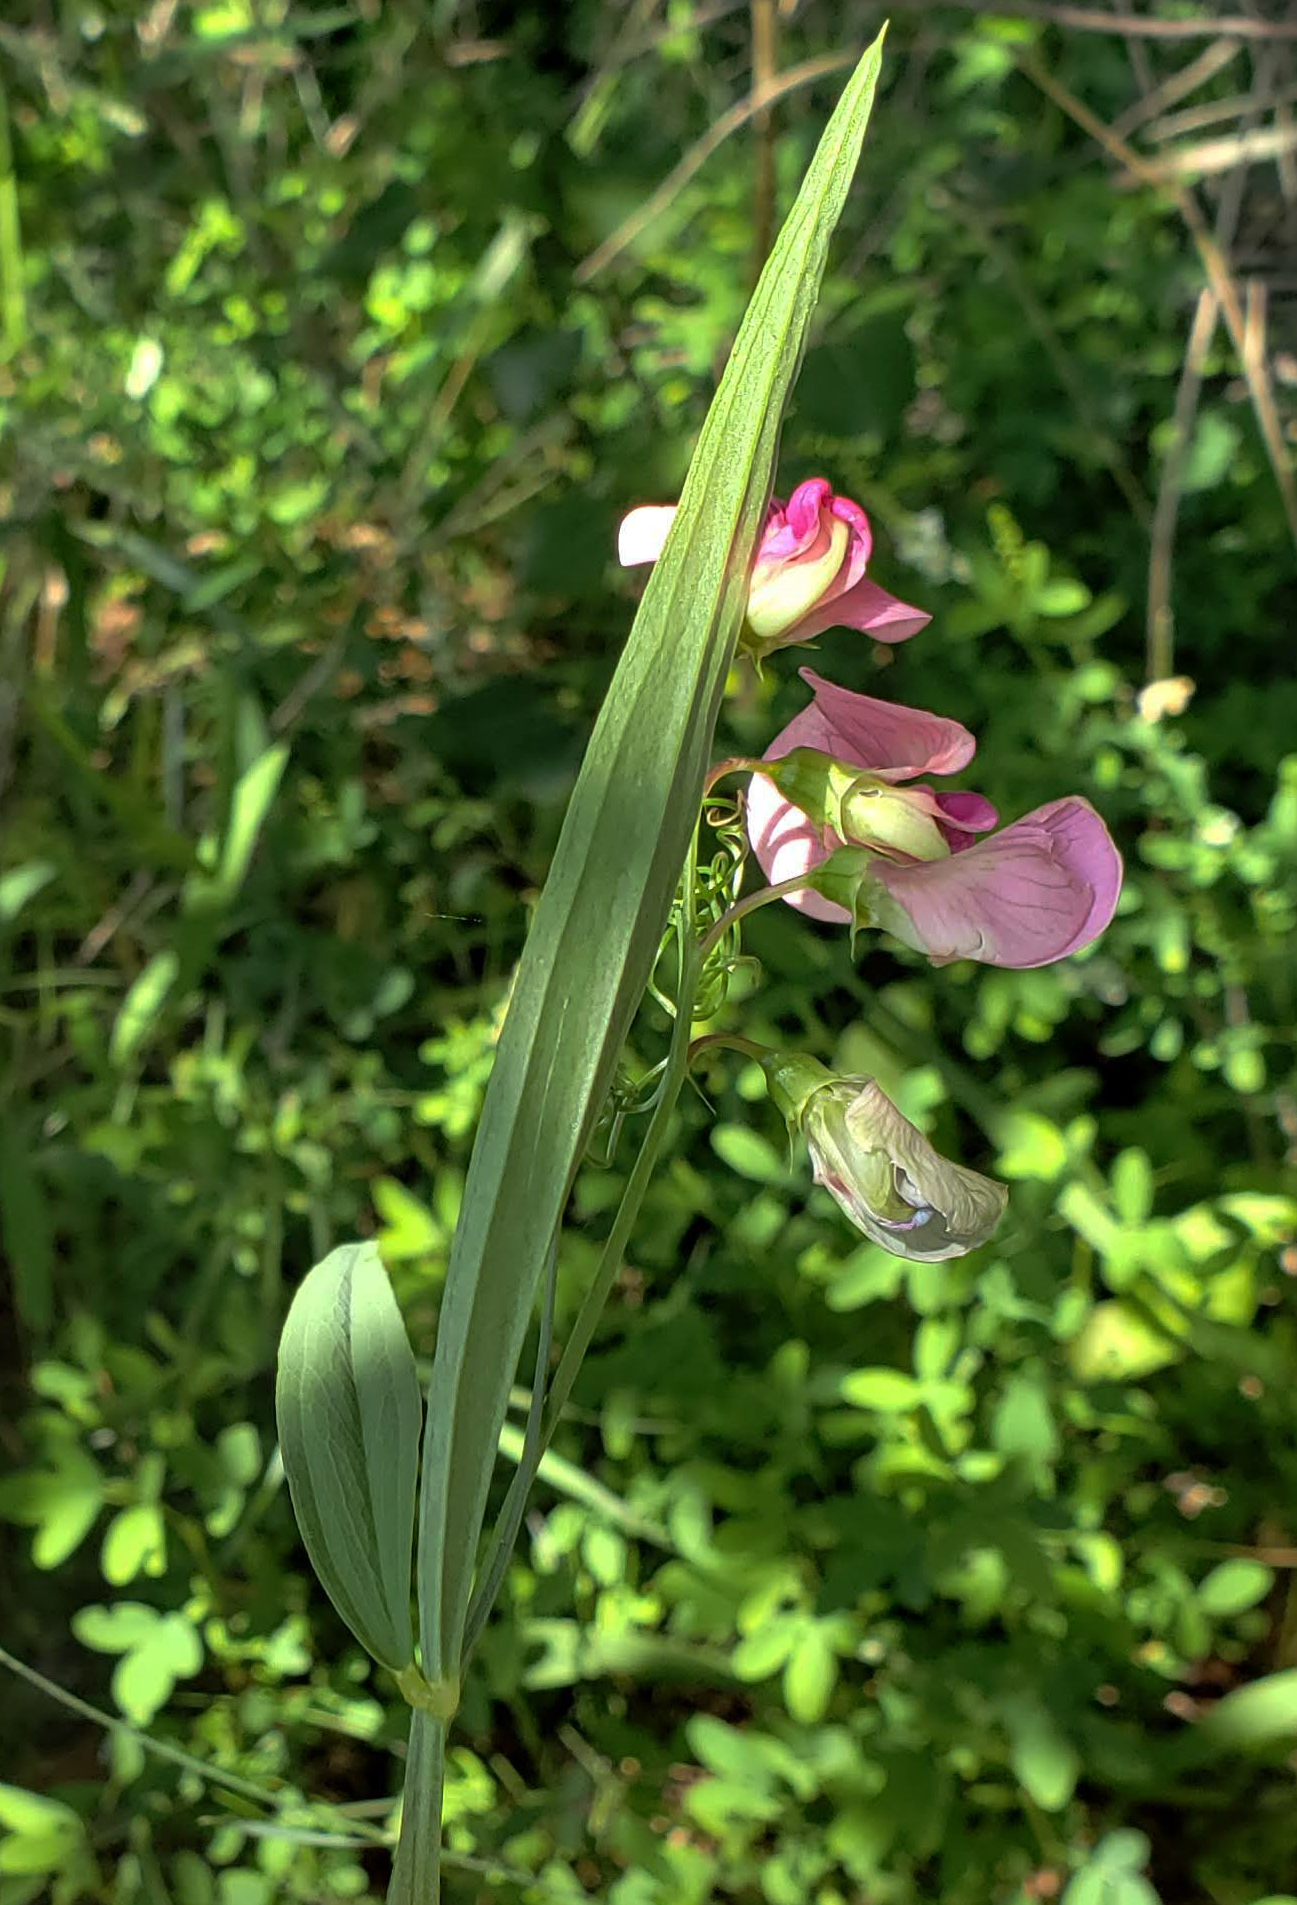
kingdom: Plantae
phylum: Tracheophyta
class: Magnoliopsida
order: Fabales
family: Fabaceae
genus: Lathyrus
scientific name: Lathyrus sylvestris
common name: Flat pea
